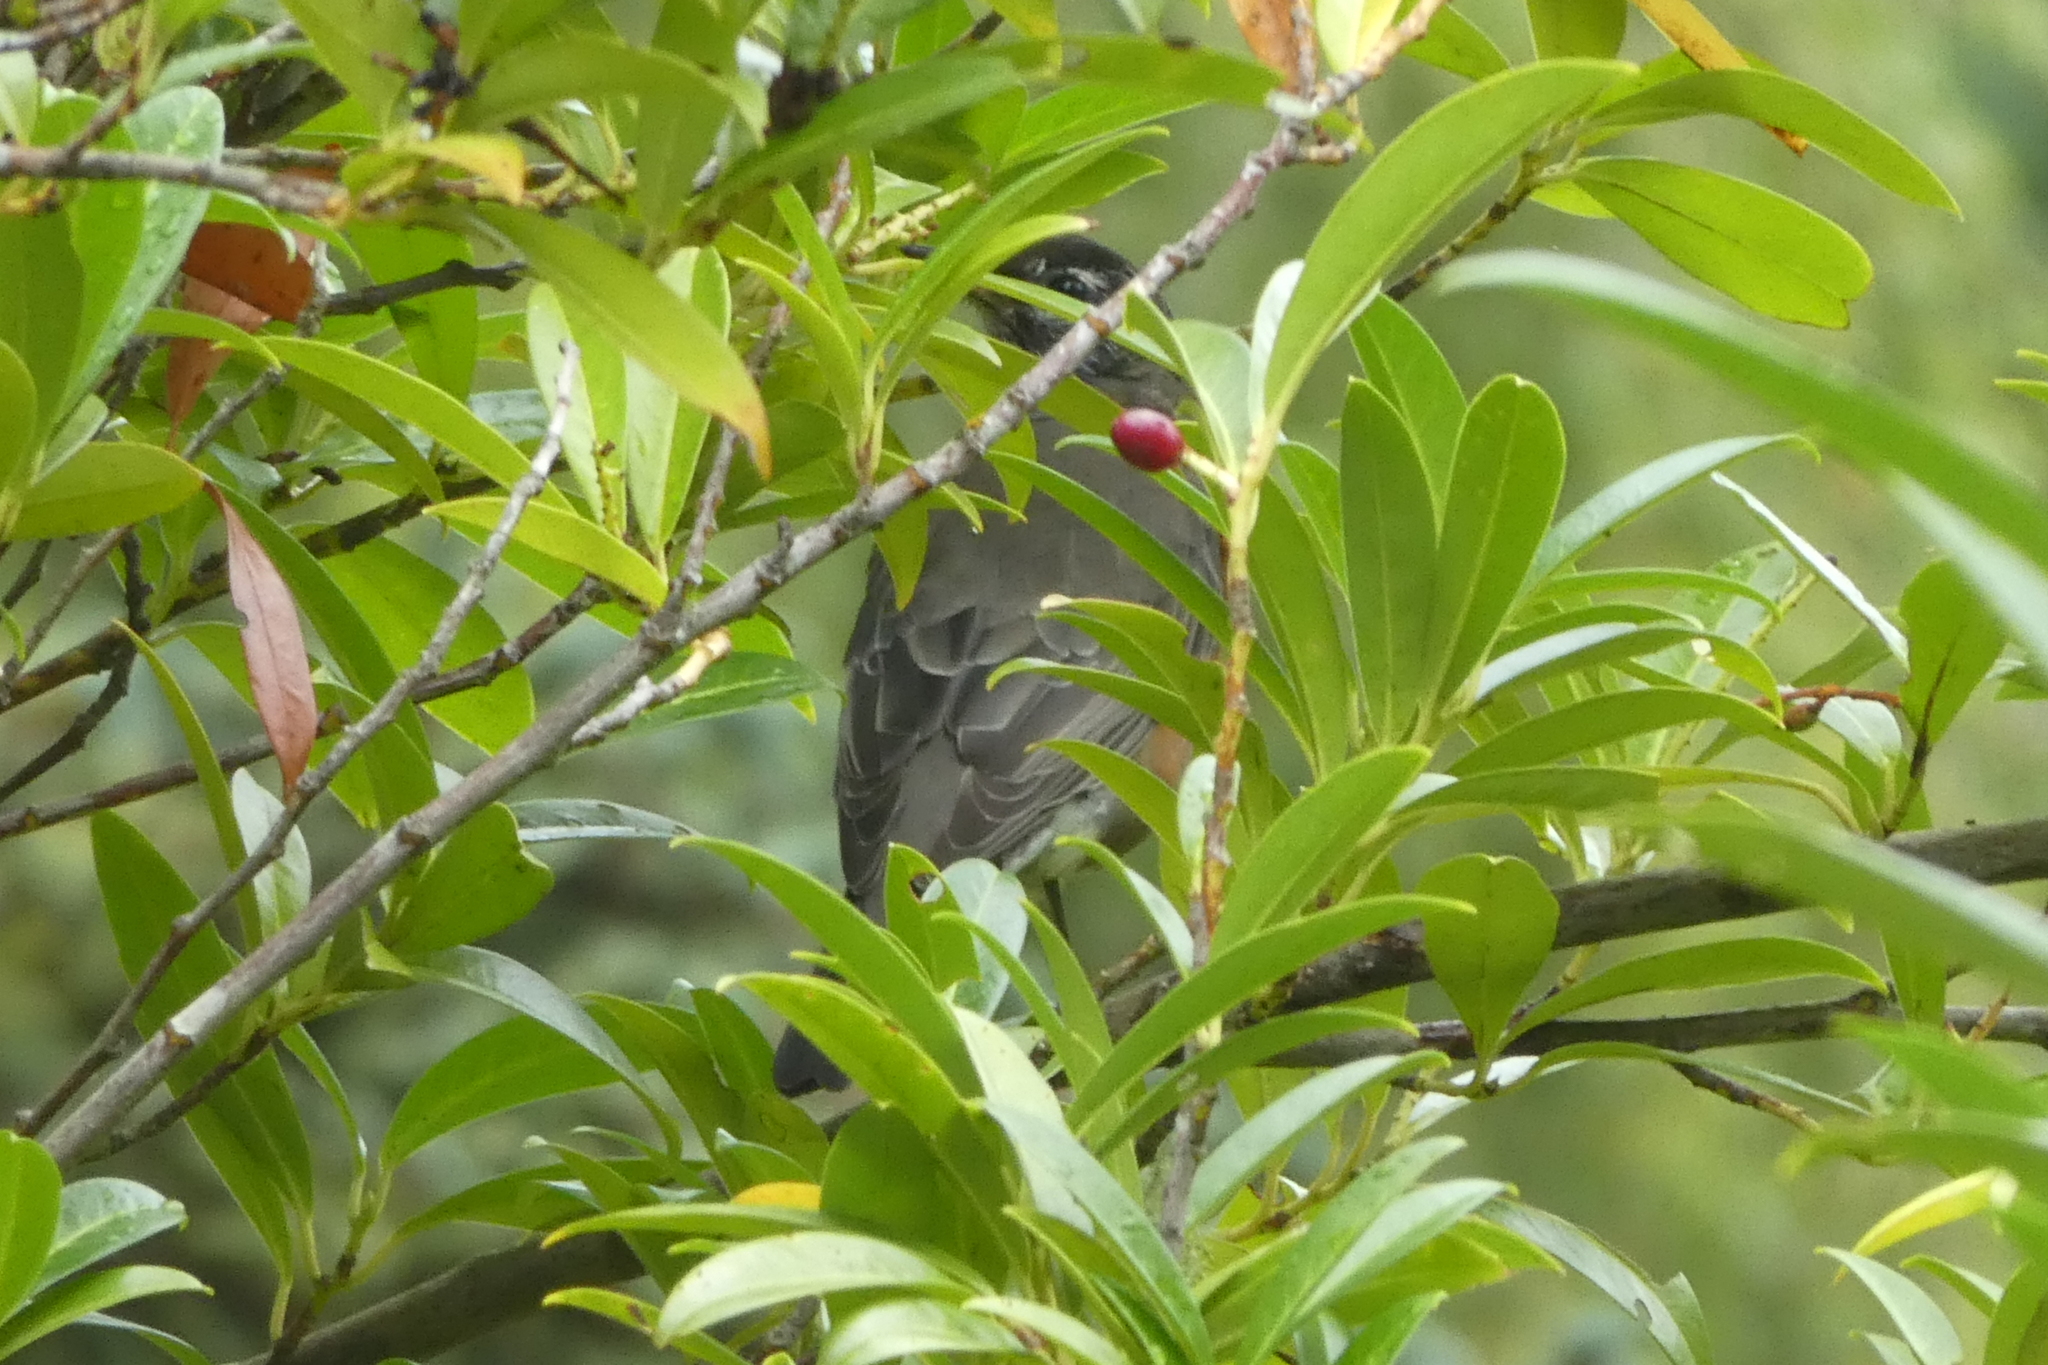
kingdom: Animalia
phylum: Chordata
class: Aves
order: Passeriformes
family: Turdidae
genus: Turdus
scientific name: Turdus migratorius
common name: American robin
